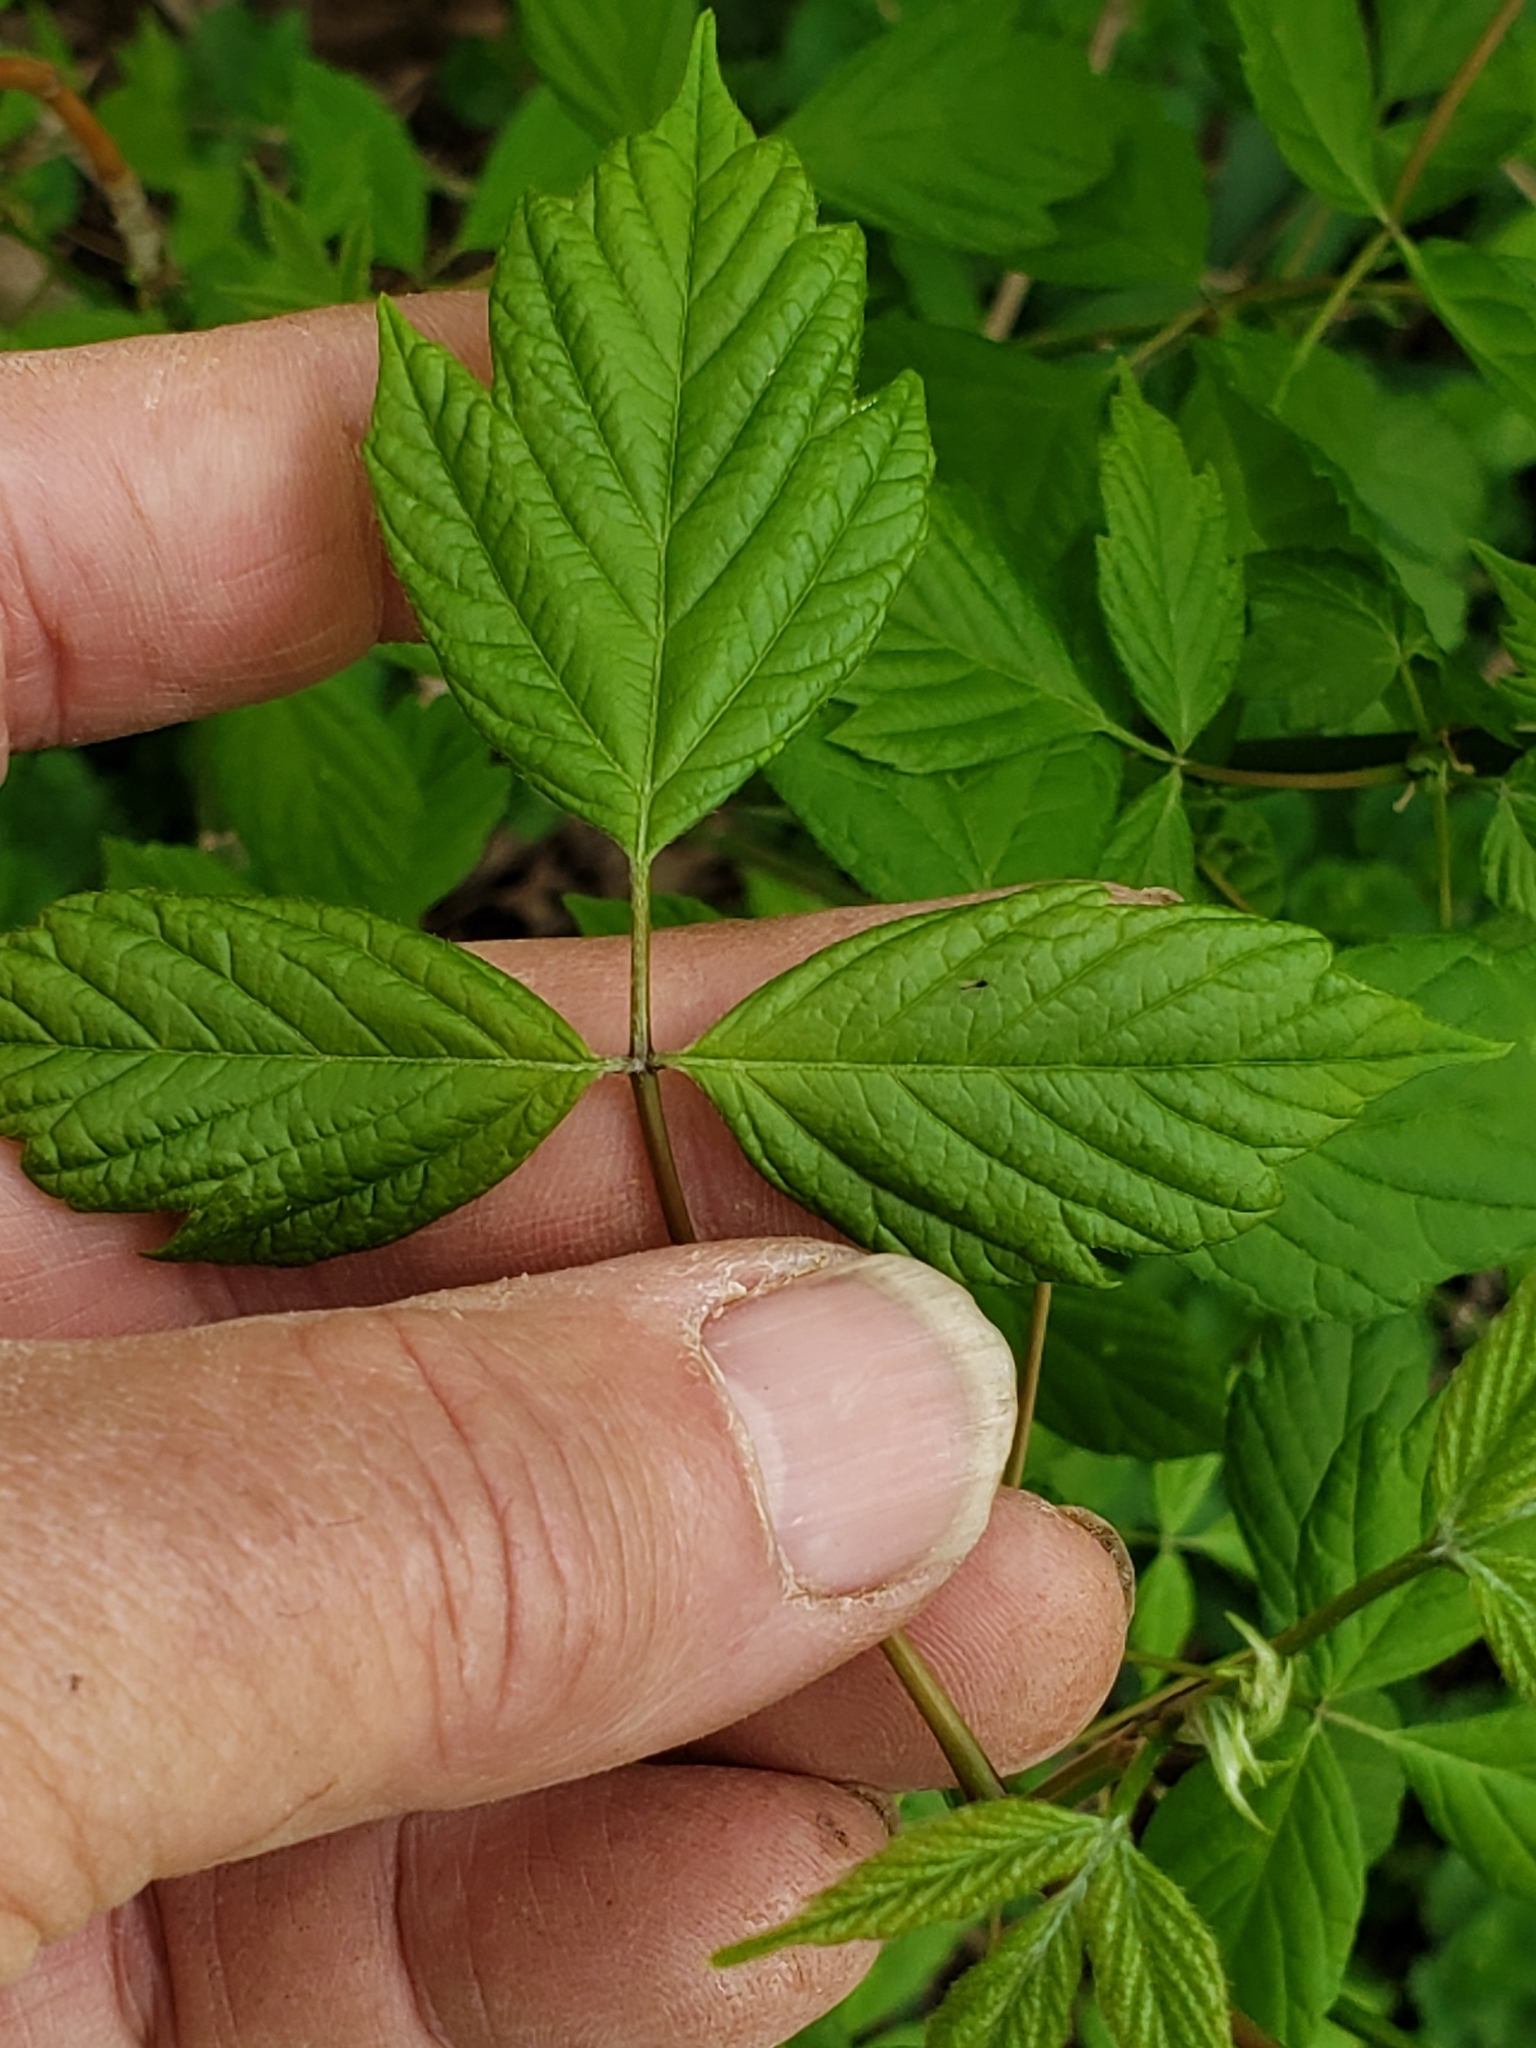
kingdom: Plantae
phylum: Tracheophyta
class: Magnoliopsida
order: Sapindales
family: Sapindaceae
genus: Acer
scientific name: Acer negundo
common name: Ashleaf maple
